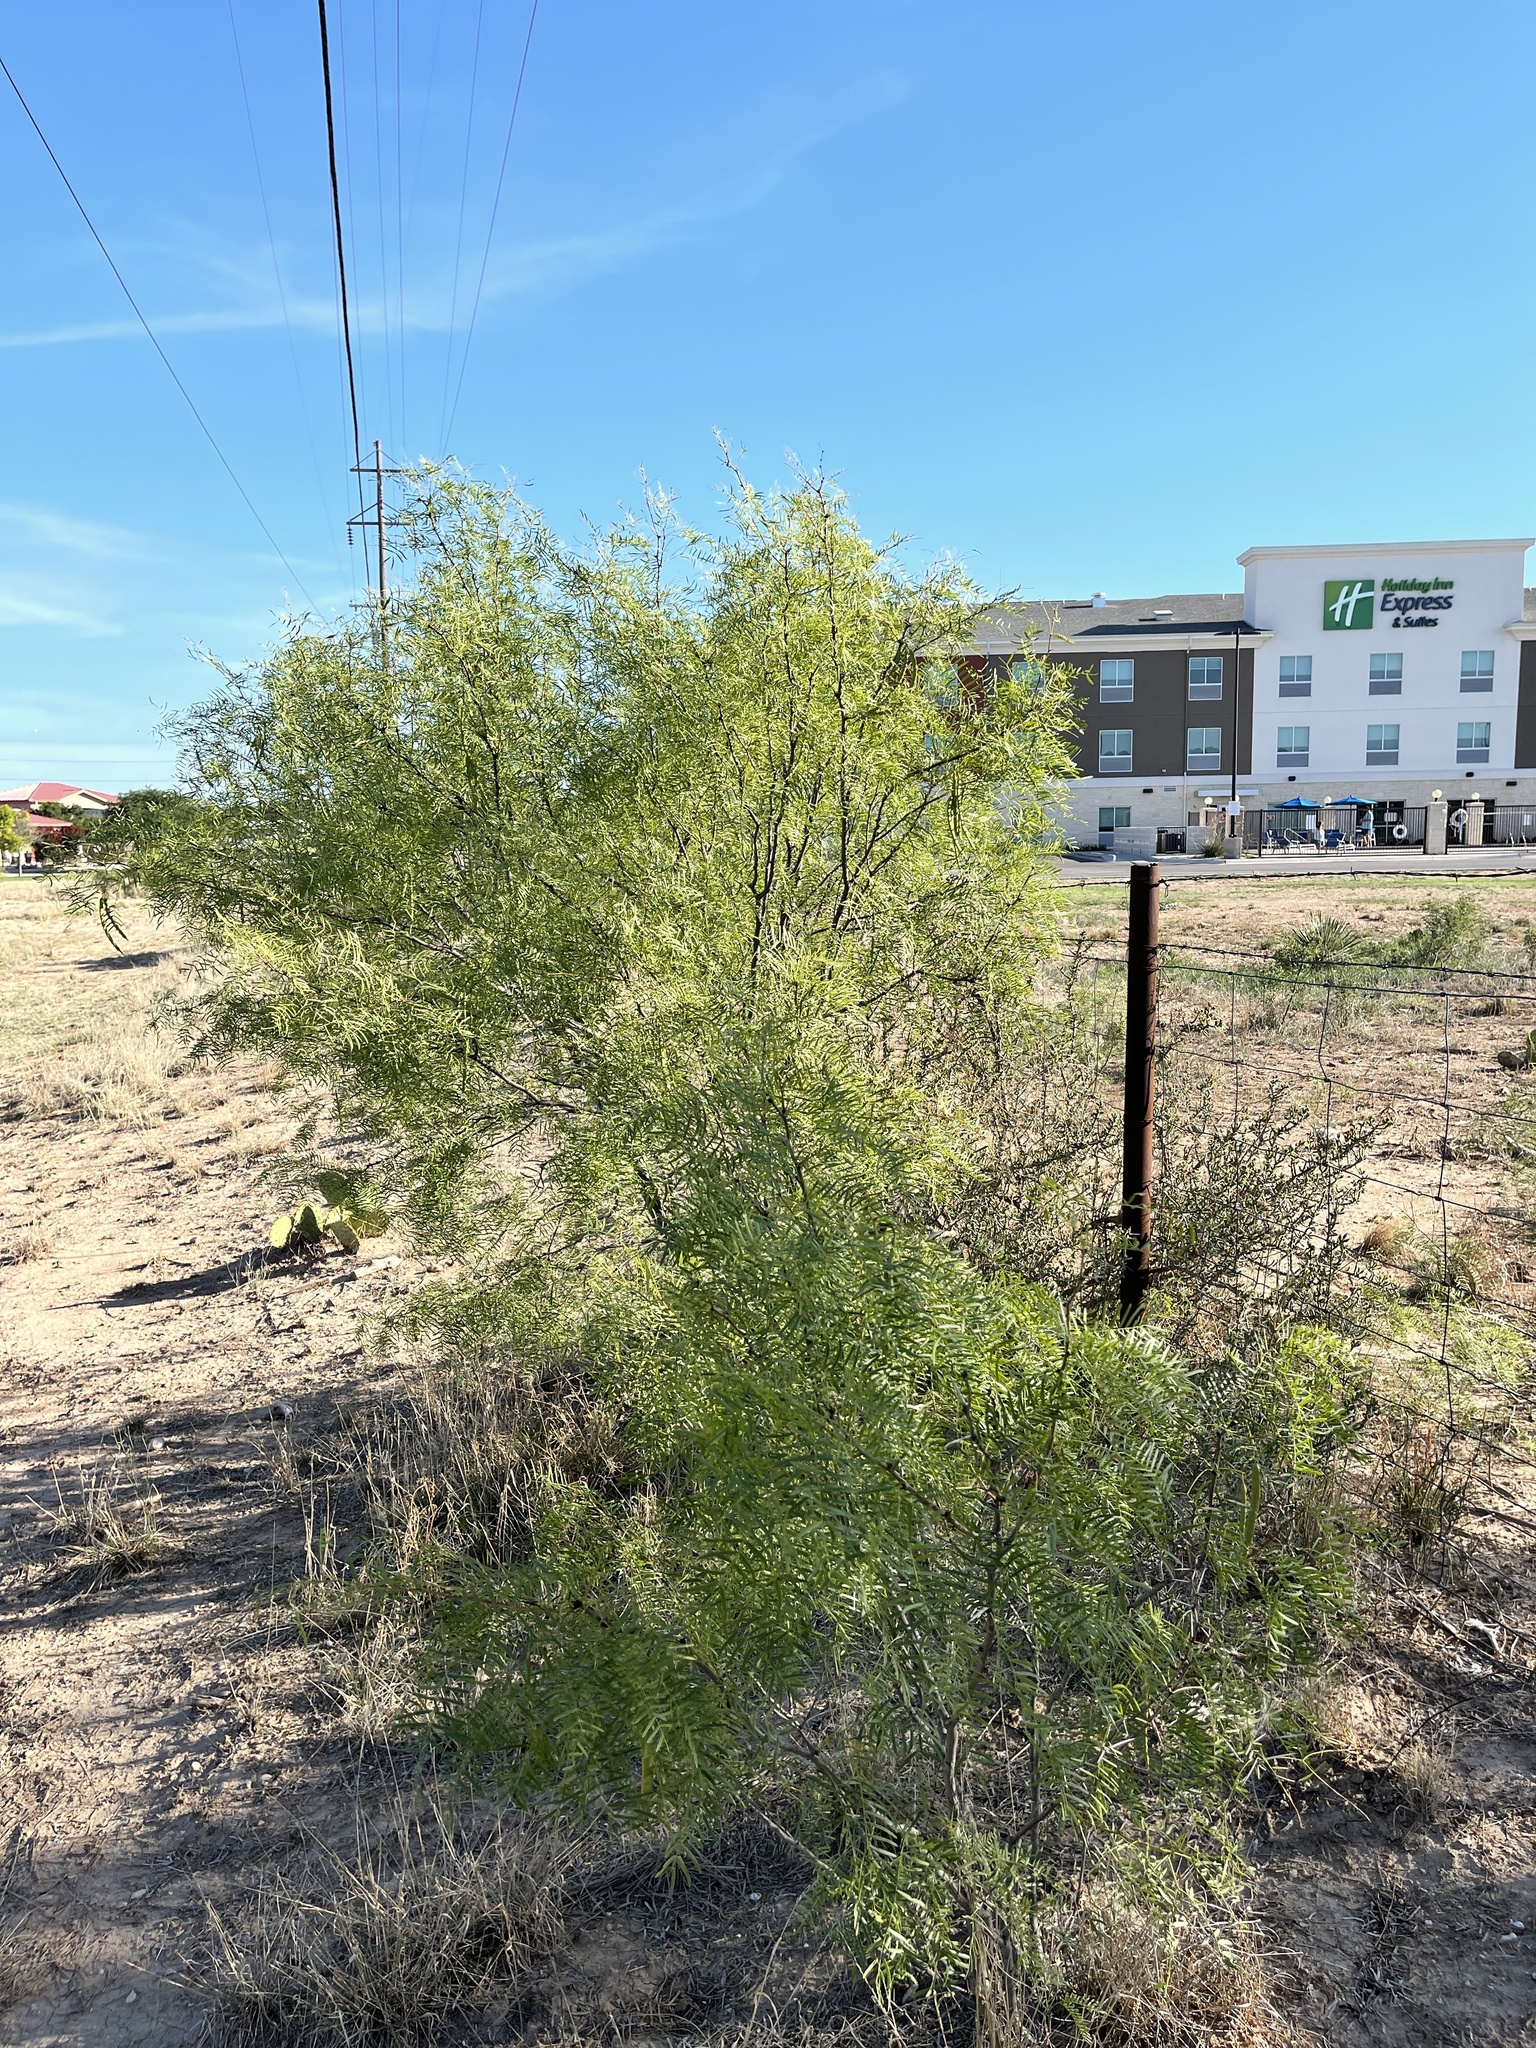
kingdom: Plantae
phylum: Tracheophyta
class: Magnoliopsida
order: Fabales
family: Fabaceae
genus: Prosopis
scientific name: Prosopis glandulosa
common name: Honey mesquite
